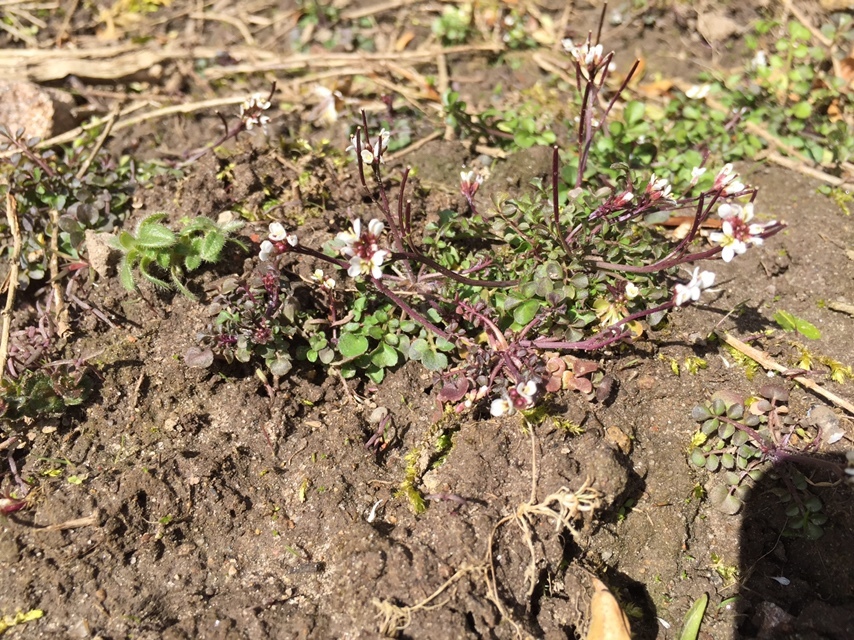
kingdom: Plantae
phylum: Tracheophyta
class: Magnoliopsida
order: Brassicales
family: Brassicaceae
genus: Cardamine
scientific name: Cardamine hirsuta
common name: Hairy bittercress
